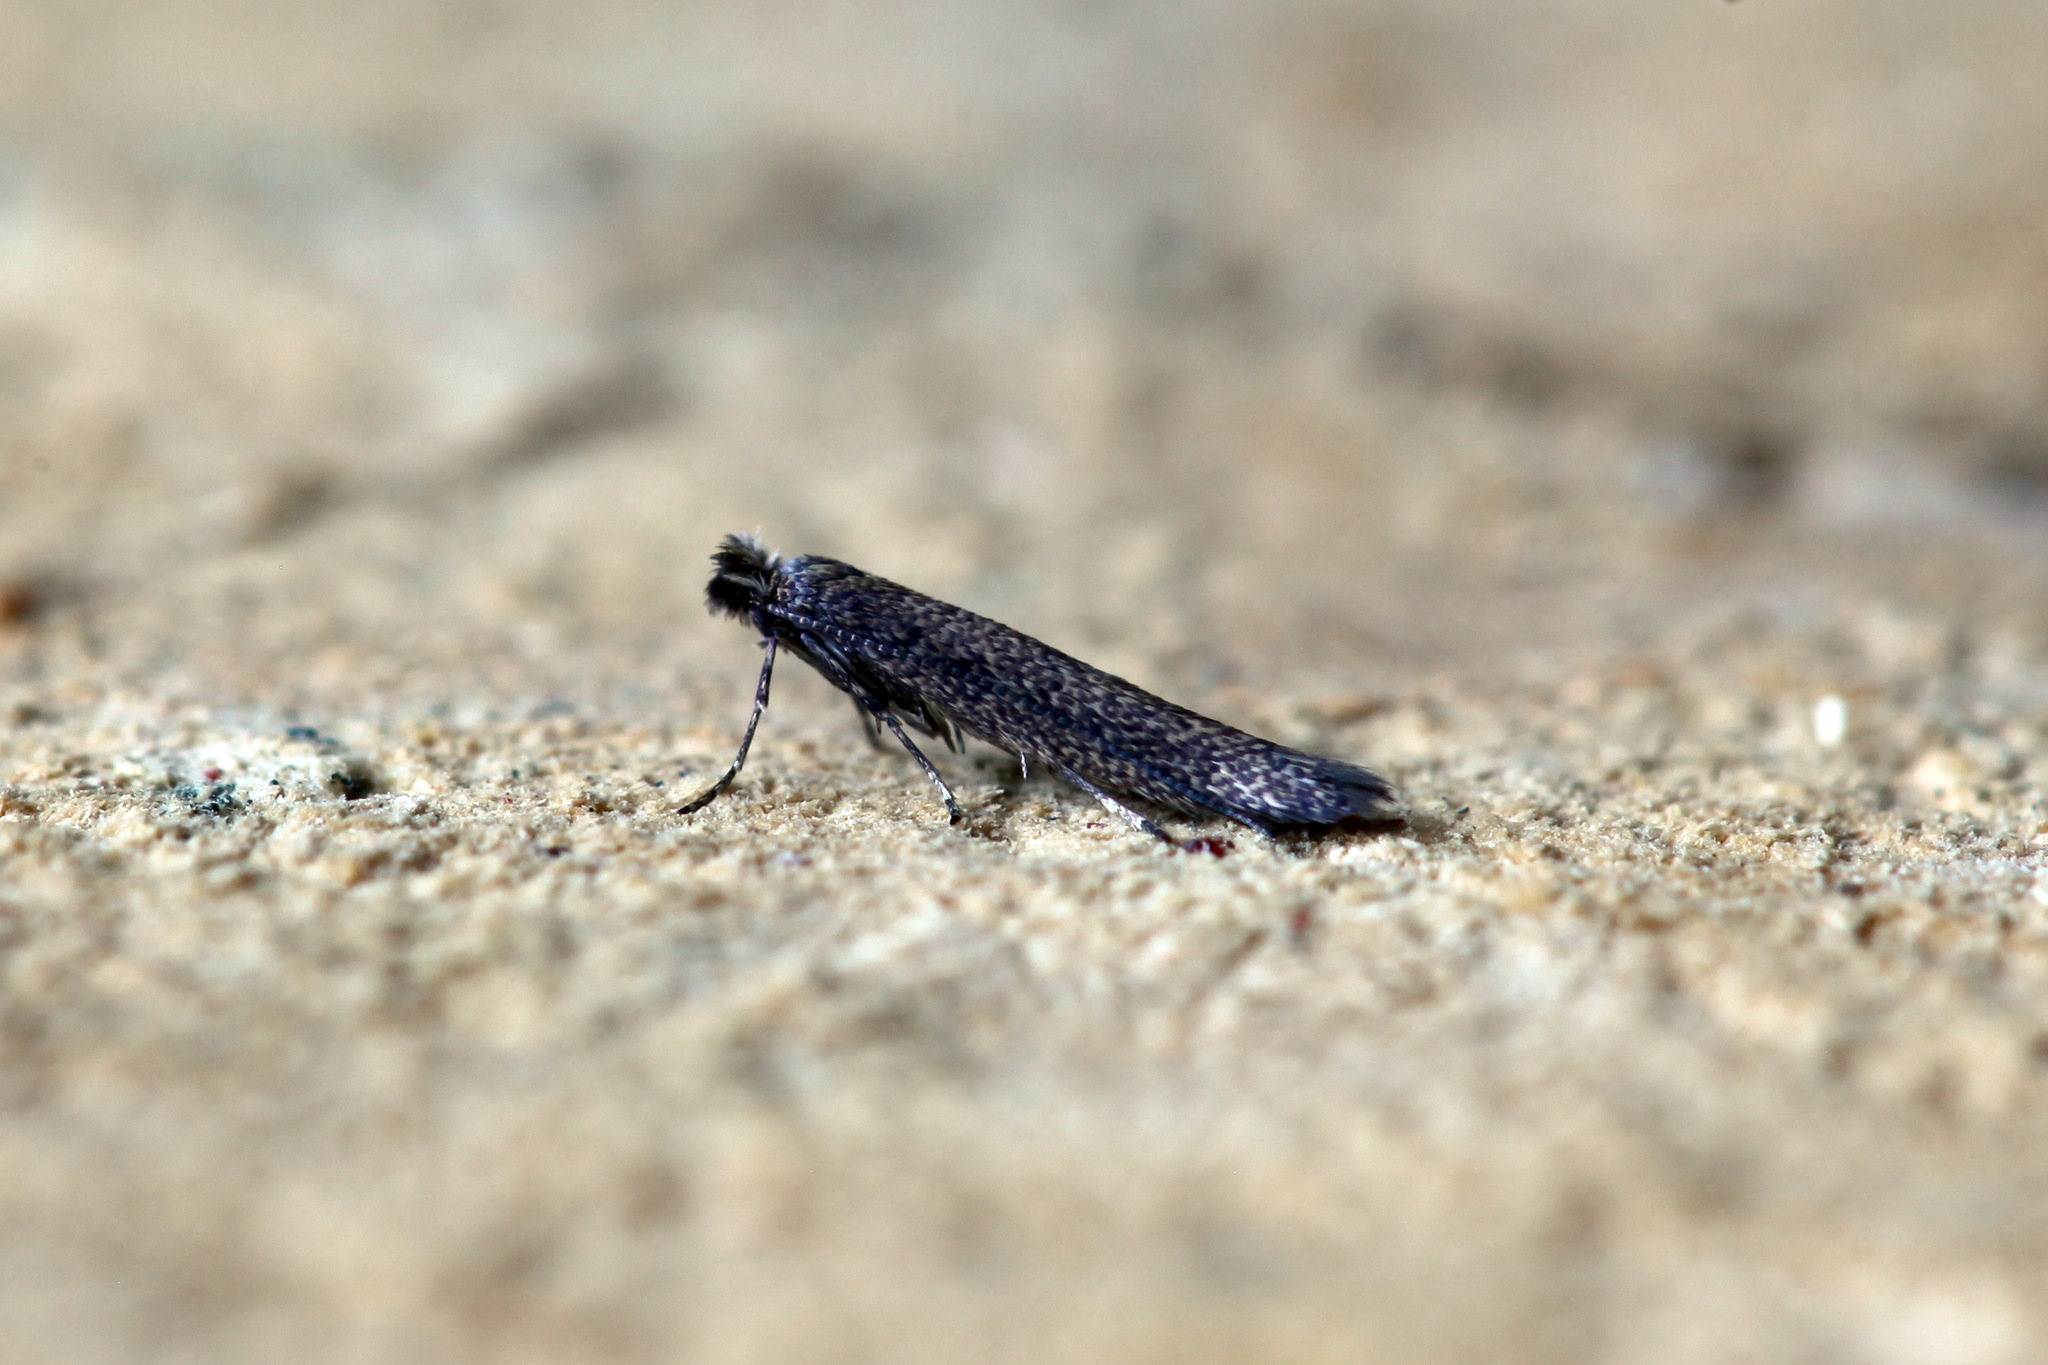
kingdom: Animalia
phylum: Arthropoda
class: Insecta
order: Lepidoptera
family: Bedelliidae
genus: Bedellia
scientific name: Bedellia somnulentella
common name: Morning-glory leafminer moth
